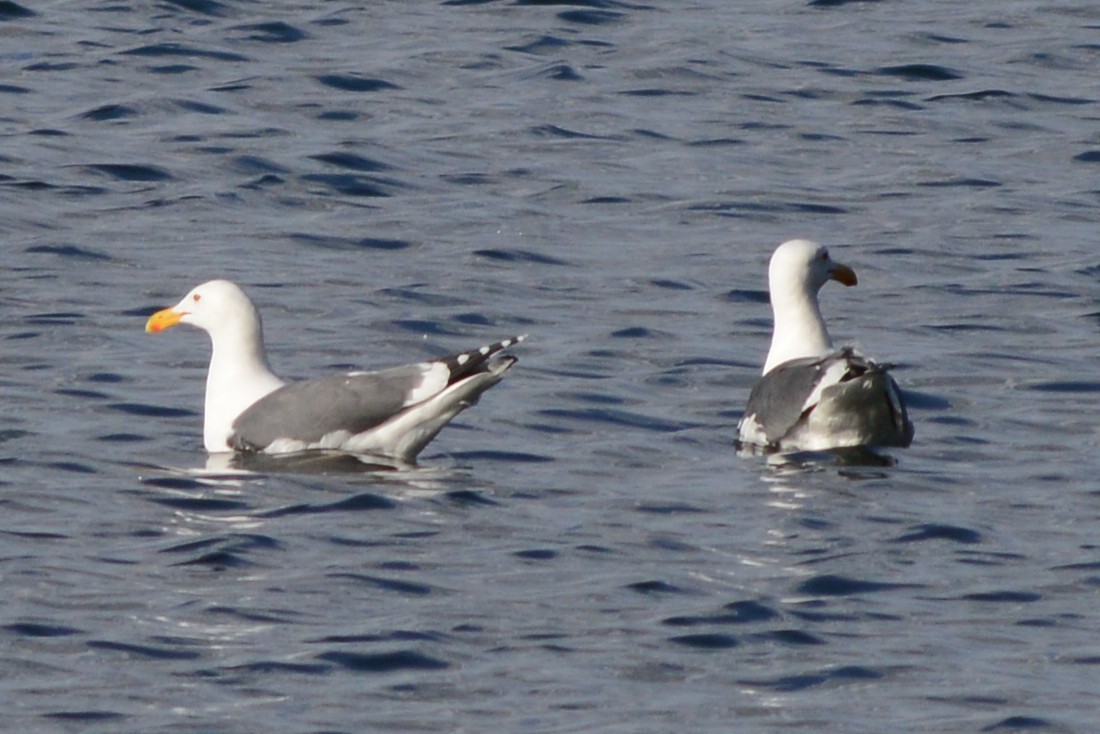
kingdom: Animalia
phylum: Chordata
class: Aves
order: Charadriiformes
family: Laridae
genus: Larus
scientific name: Larus occidentalis
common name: Western gull
